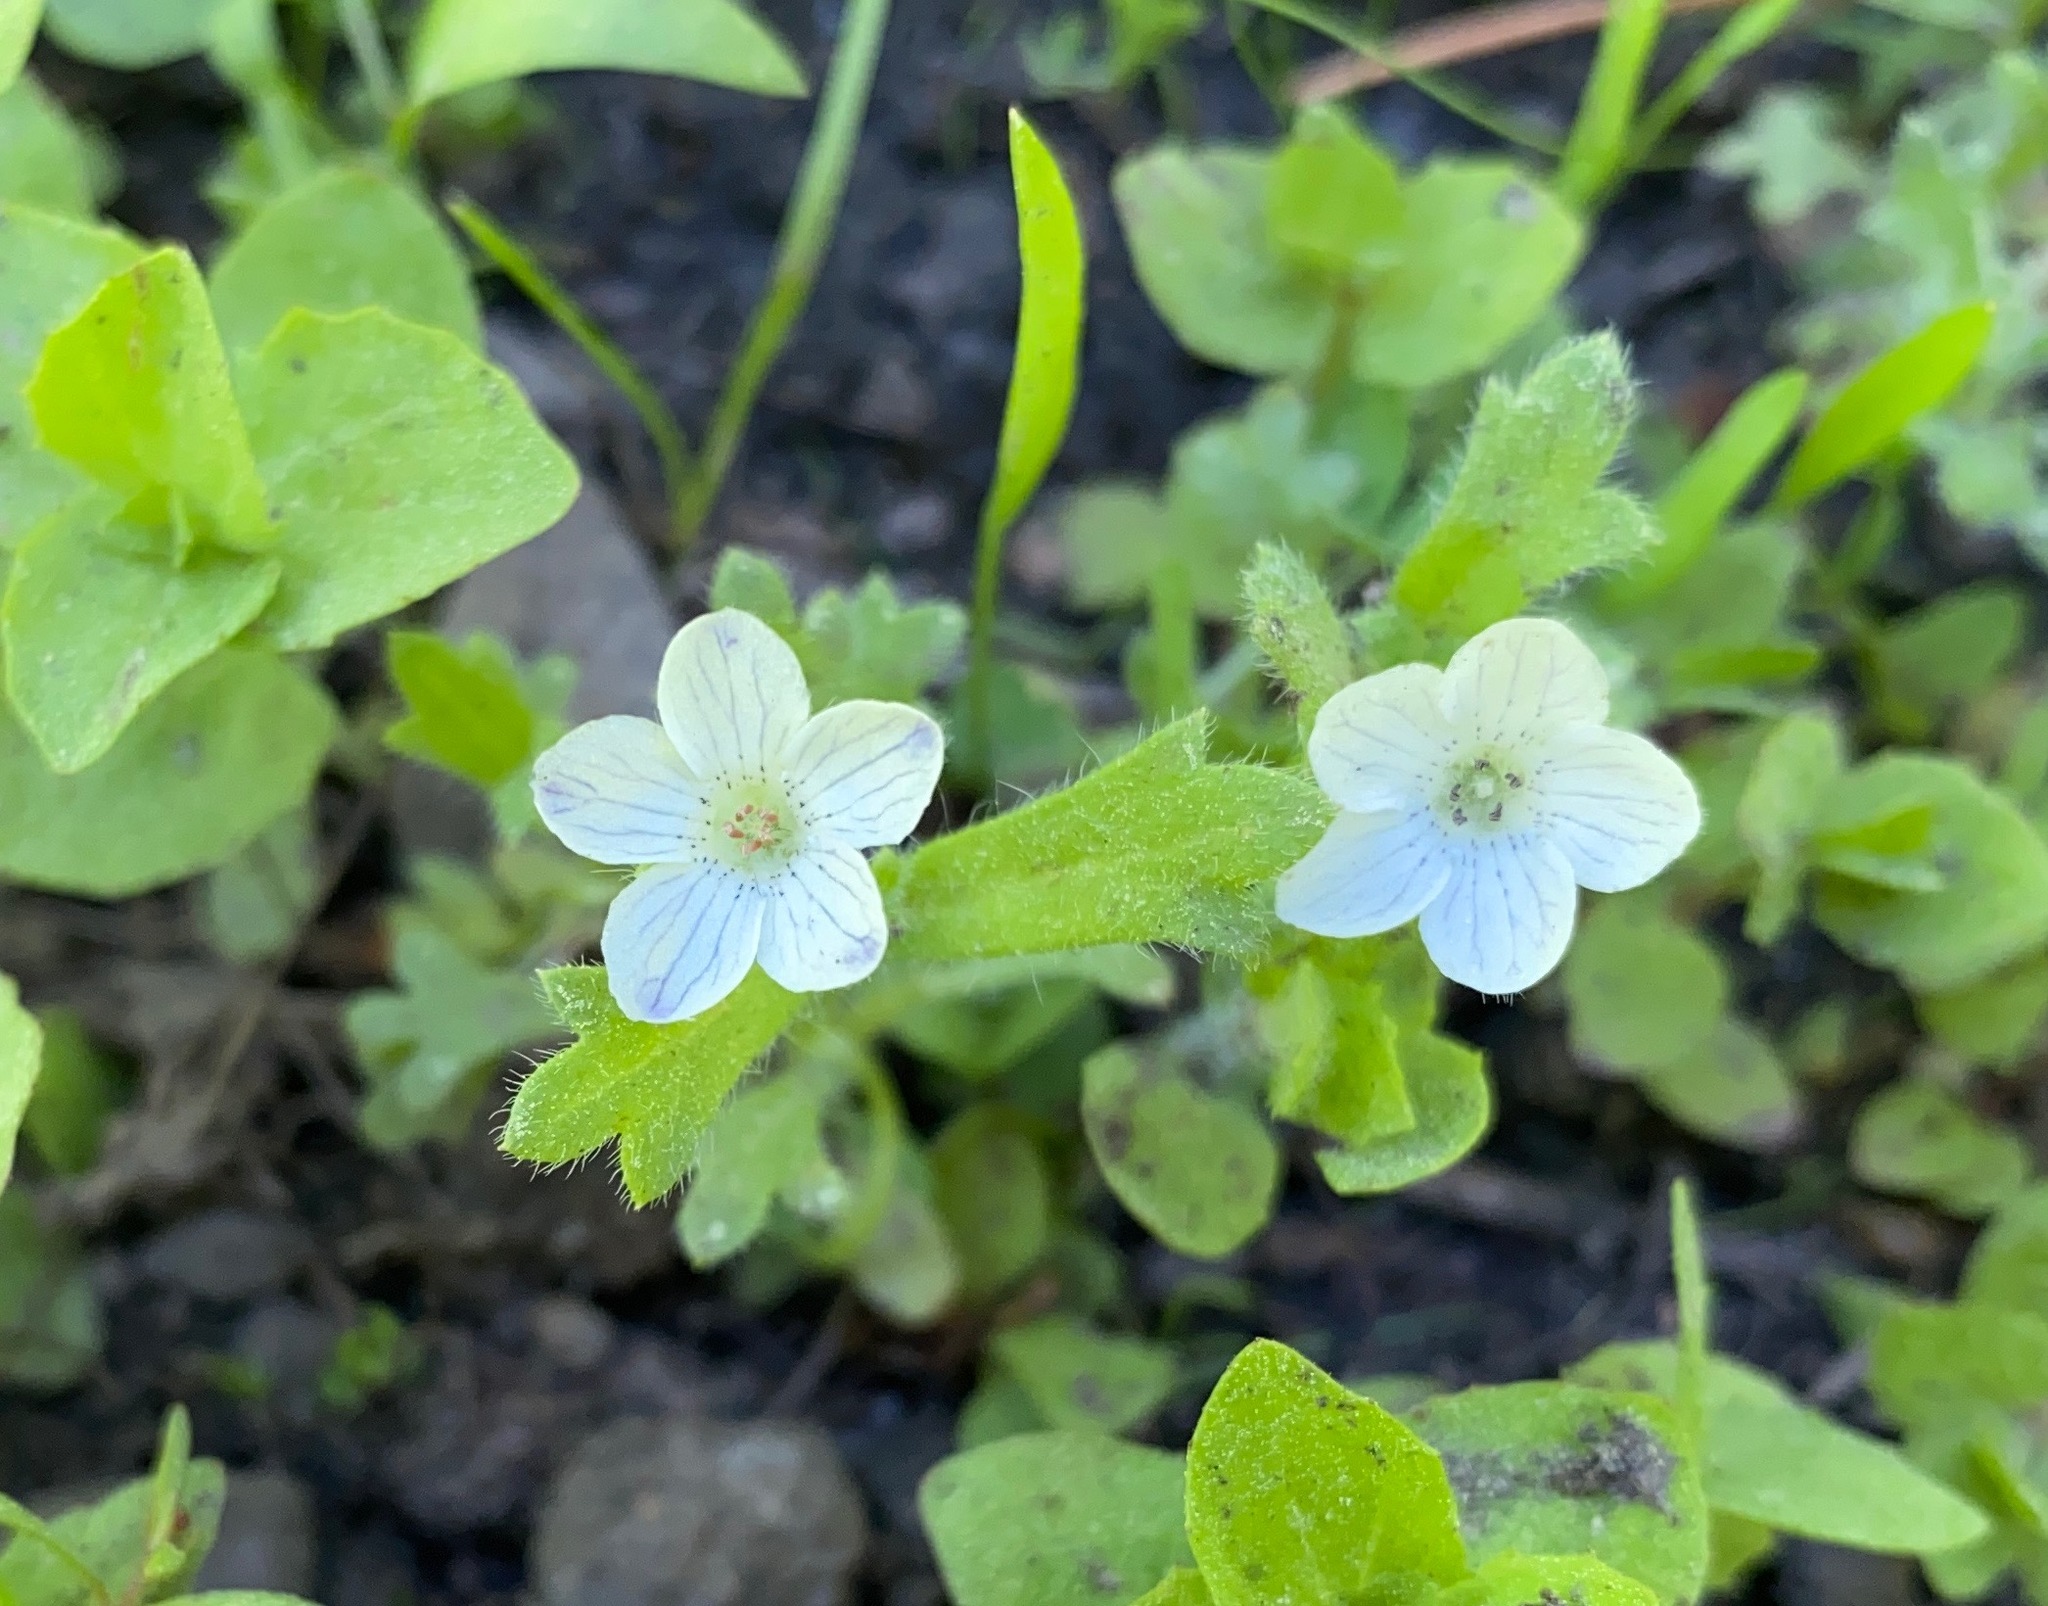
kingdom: Plantae
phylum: Tracheophyta
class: Magnoliopsida
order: Boraginales
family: Hydrophyllaceae
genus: Nemophila
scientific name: Nemophila pedunculata
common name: Little-foot baby-blue-eyes
